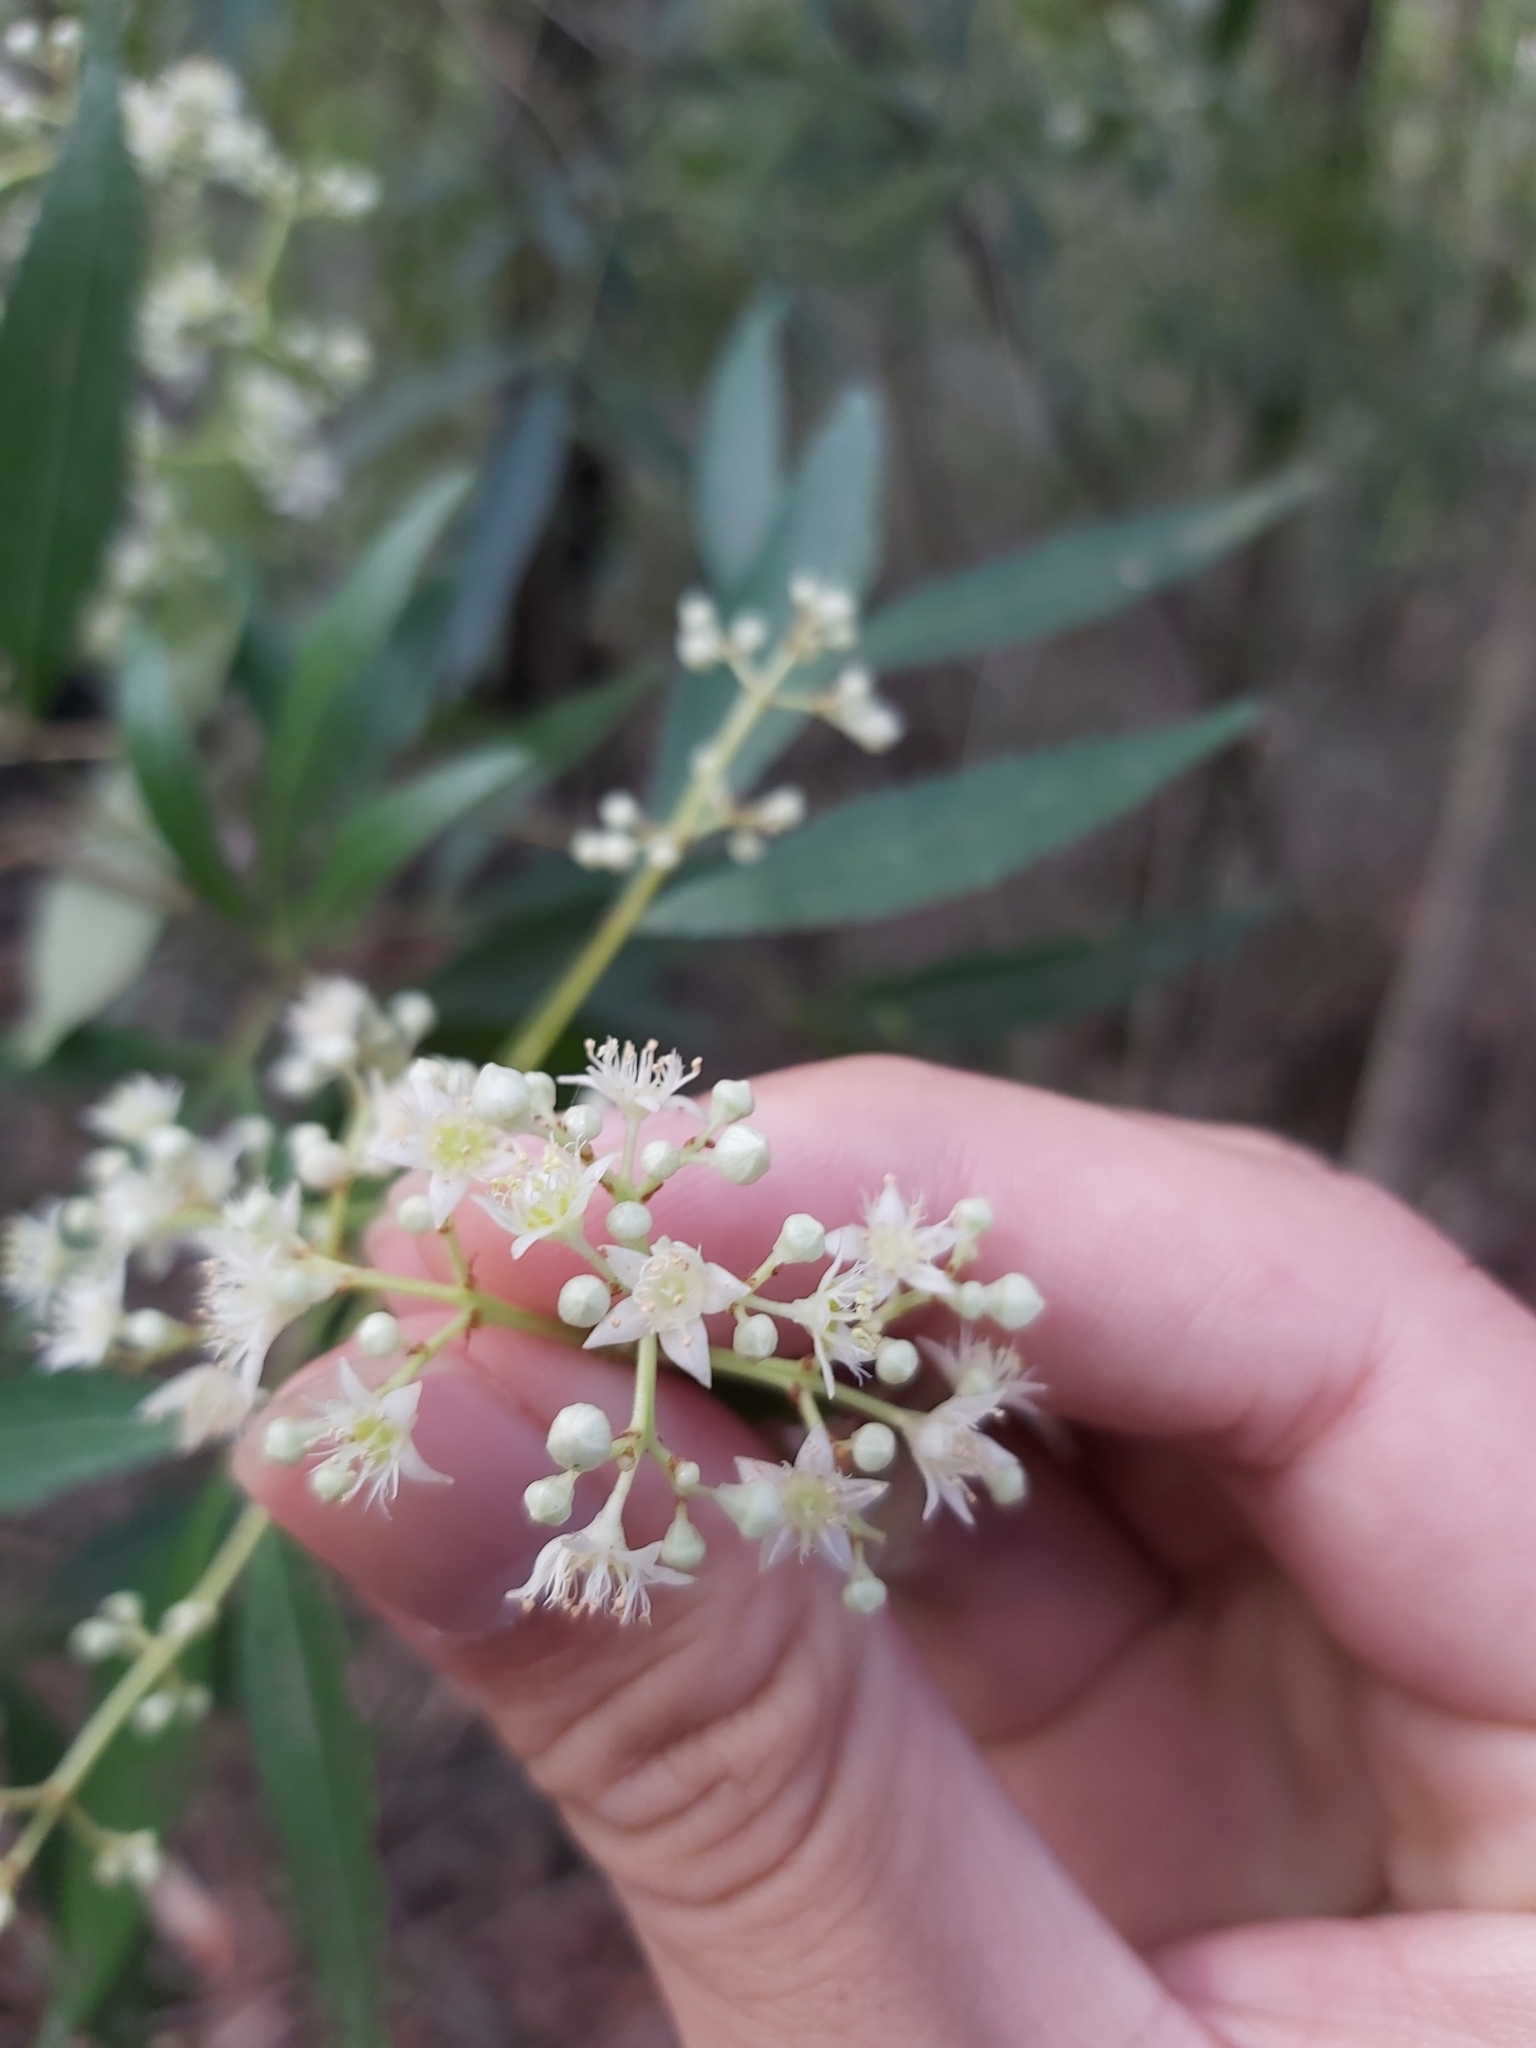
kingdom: Plantae
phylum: Tracheophyta
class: Magnoliopsida
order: Oxalidales
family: Cunoniaceae
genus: Ceratopetalum
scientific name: Ceratopetalum gummiferum
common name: Christmasbush
